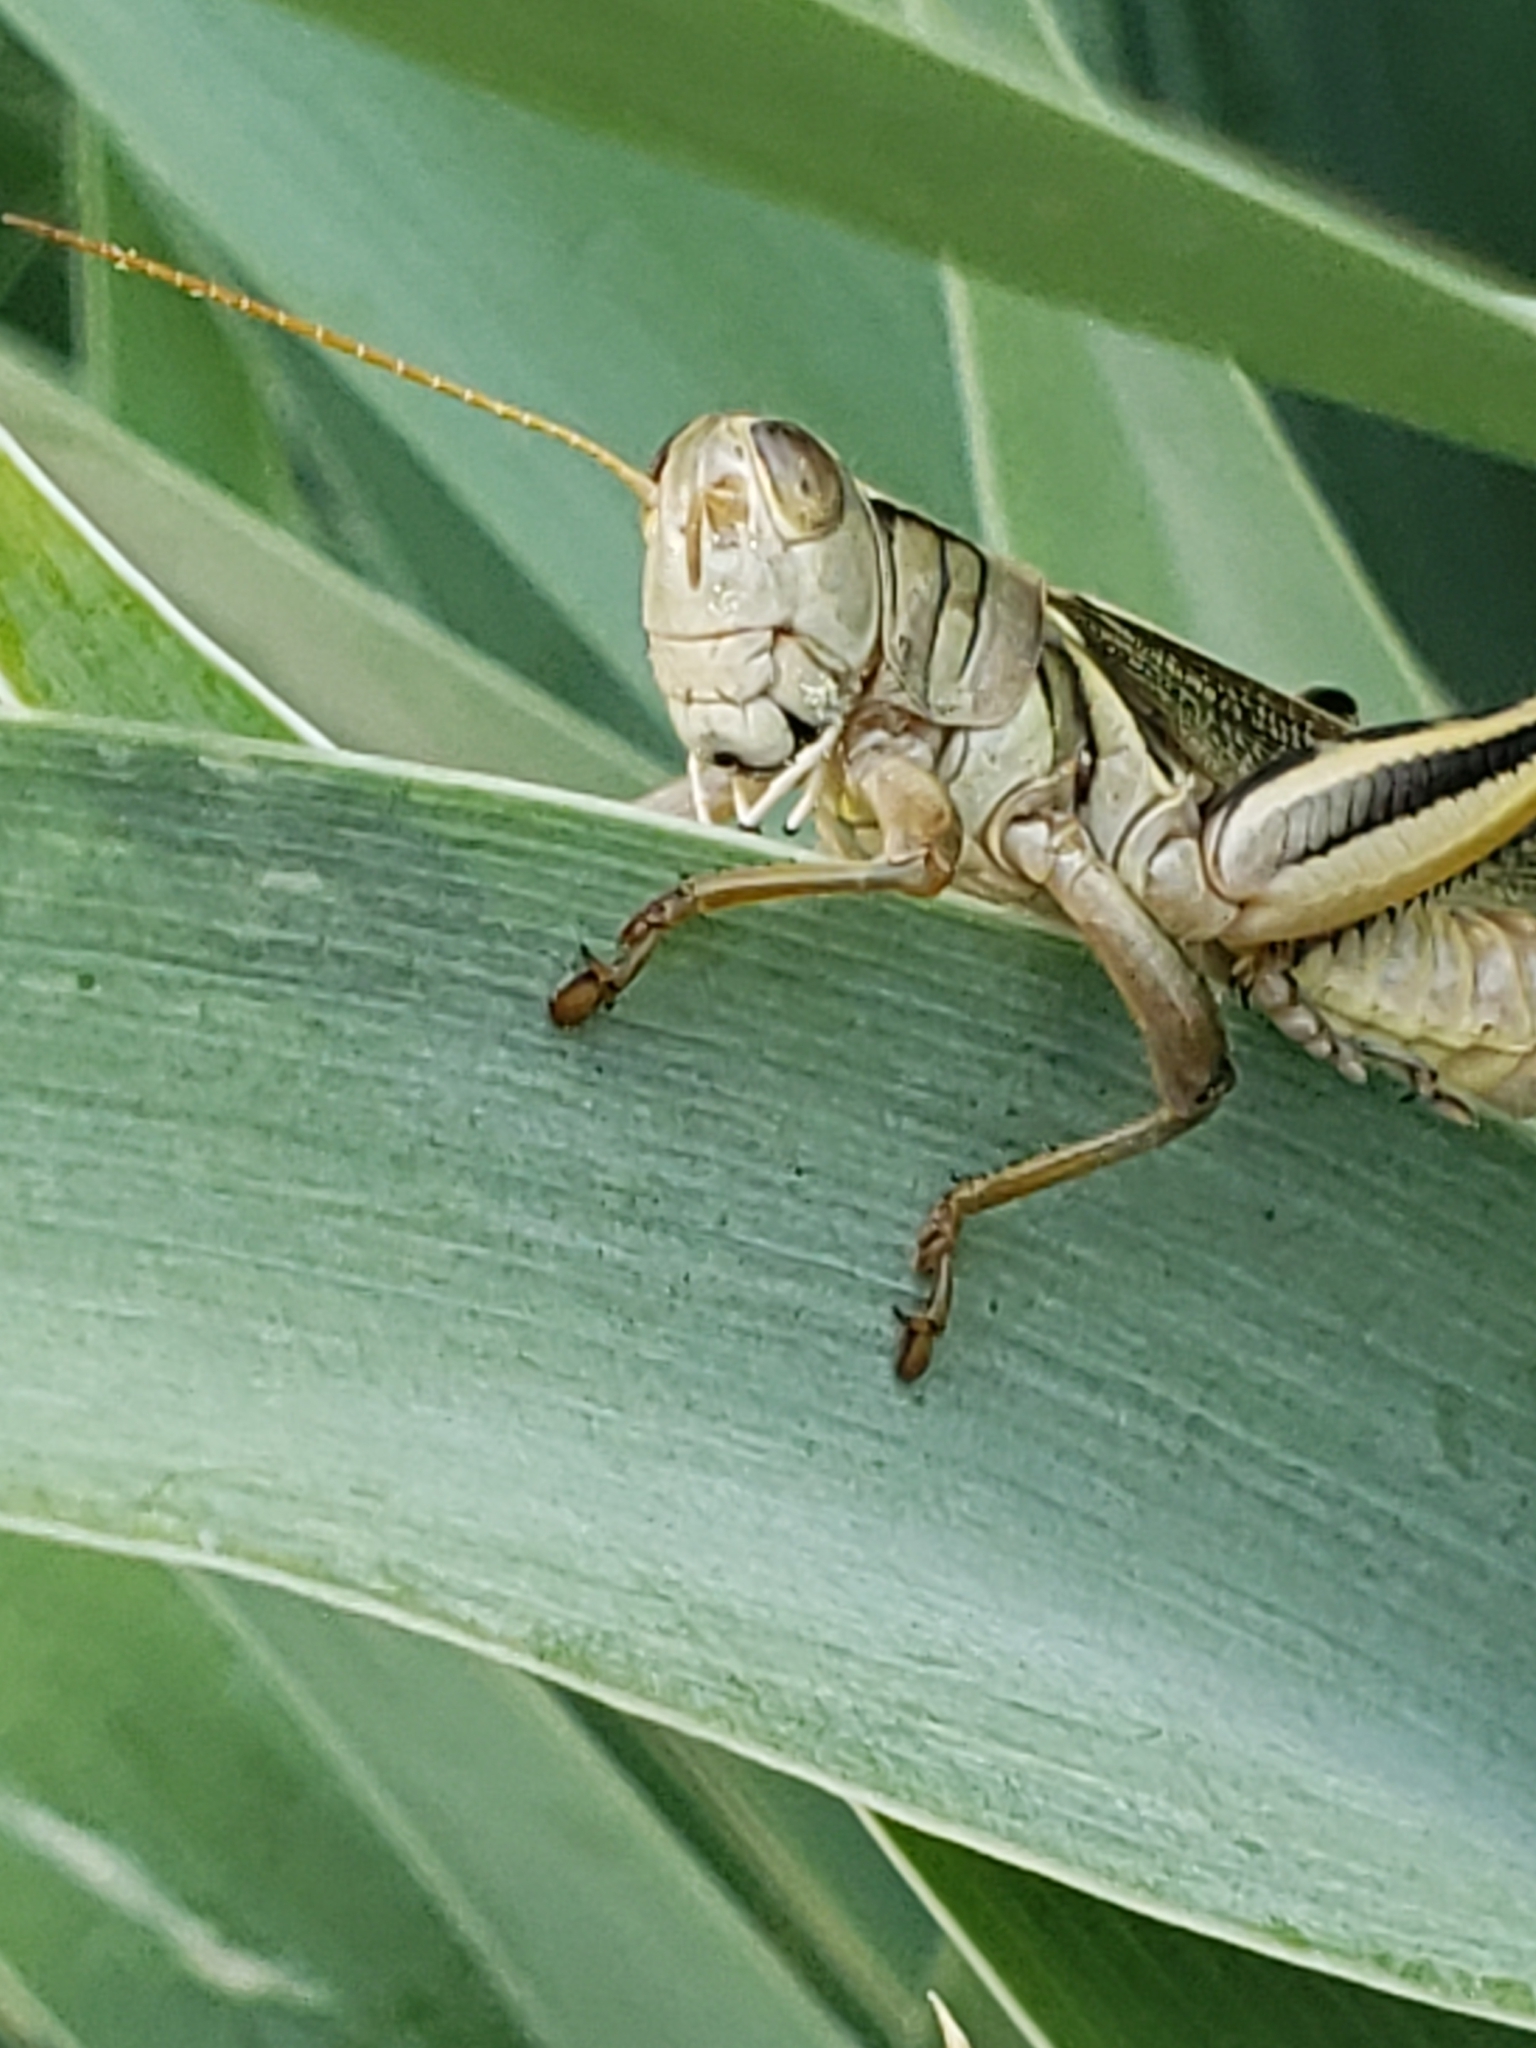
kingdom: Animalia
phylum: Arthropoda
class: Insecta
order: Orthoptera
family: Acrididae
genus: Melanoplus
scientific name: Melanoplus bivittatus
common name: Two-striped grasshopper
